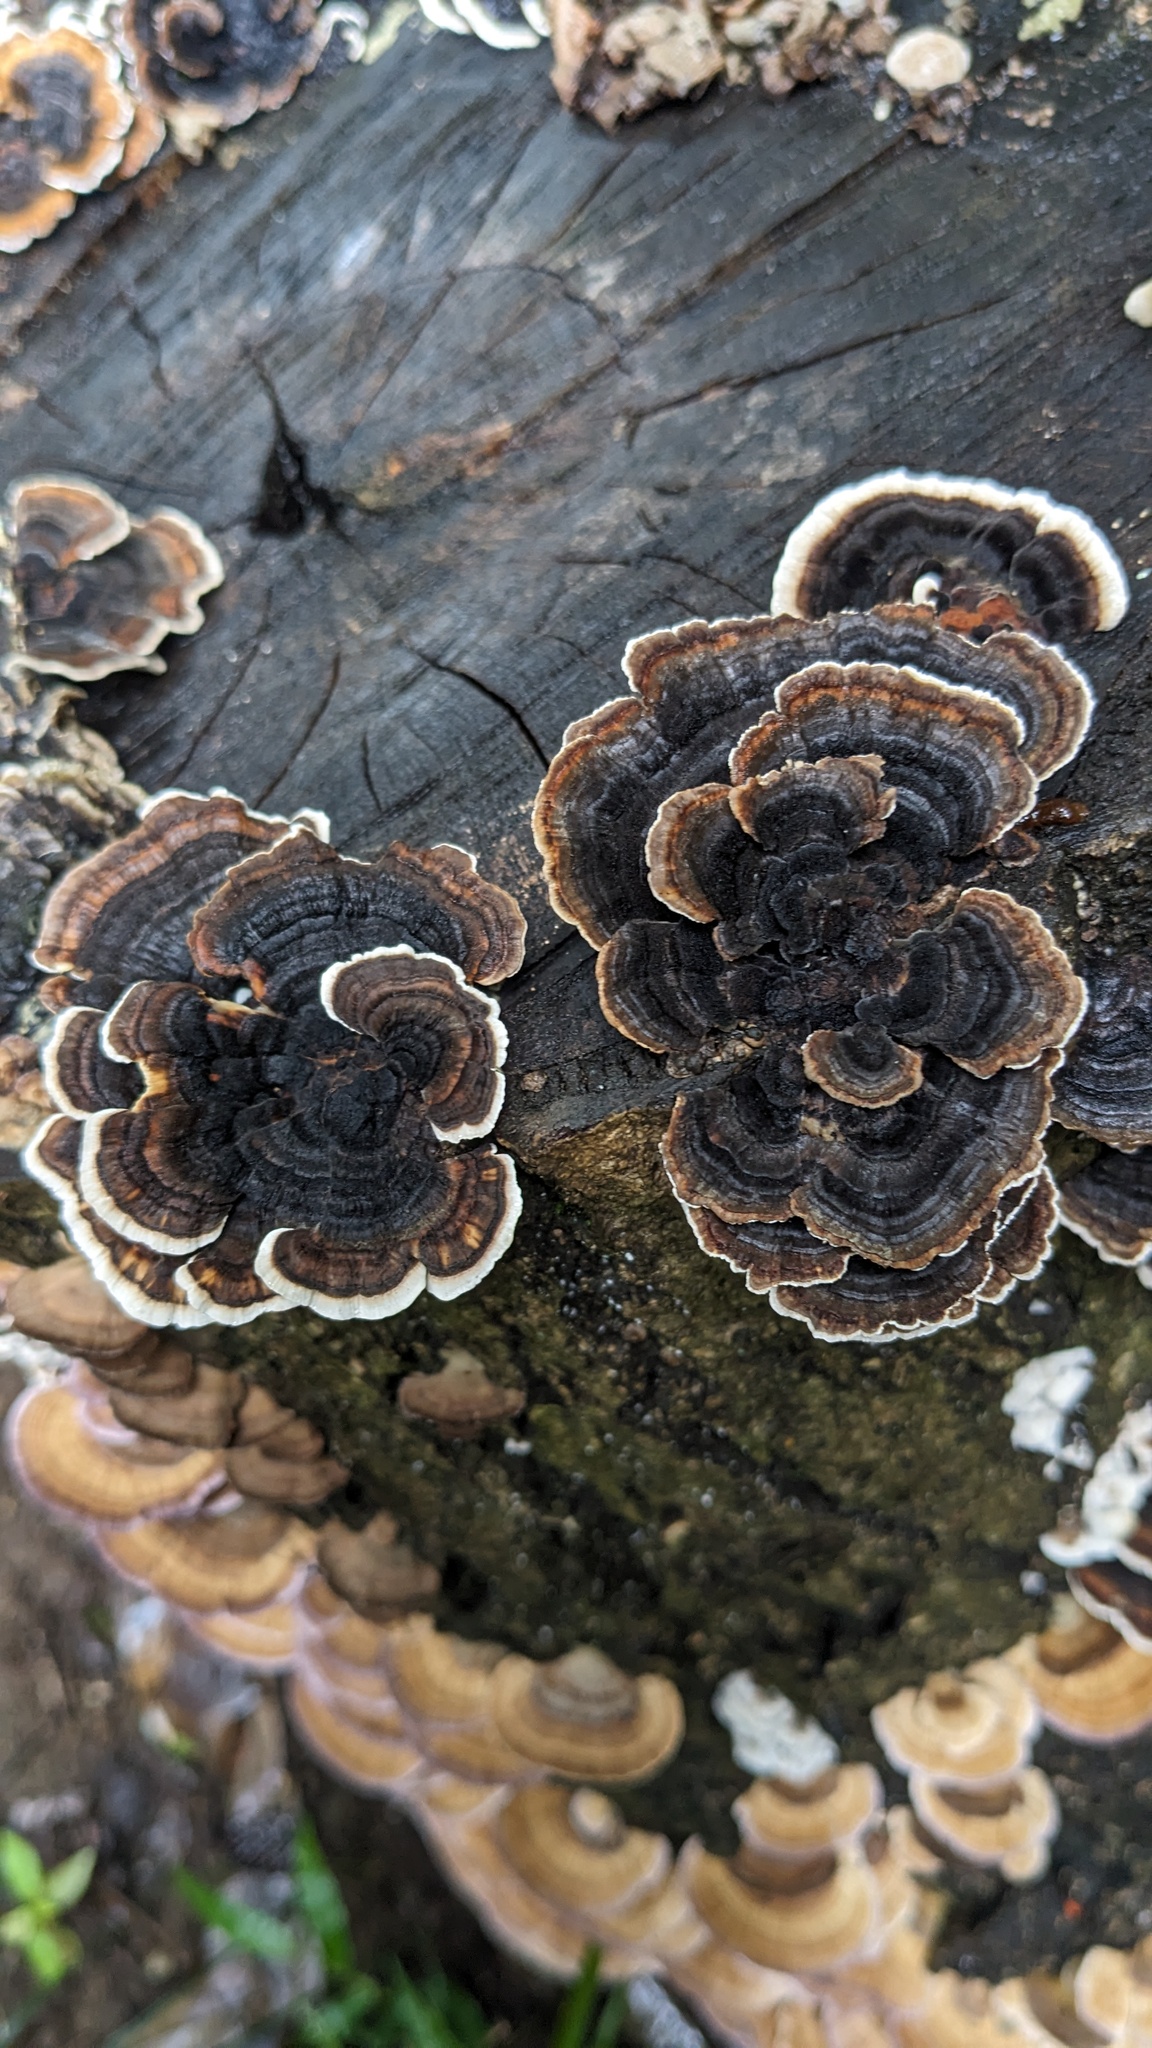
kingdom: Fungi
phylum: Basidiomycota
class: Agaricomycetes
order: Polyporales
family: Polyporaceae
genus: Trametes
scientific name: Trametes versicolor
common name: Turkeytail
